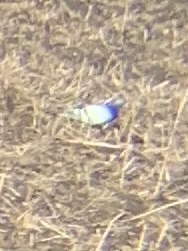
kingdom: Animalia
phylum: Chordata
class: Aves
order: Columbiformes
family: Columbidae
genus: Columba
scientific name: Columba livia
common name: Rock pigeon
